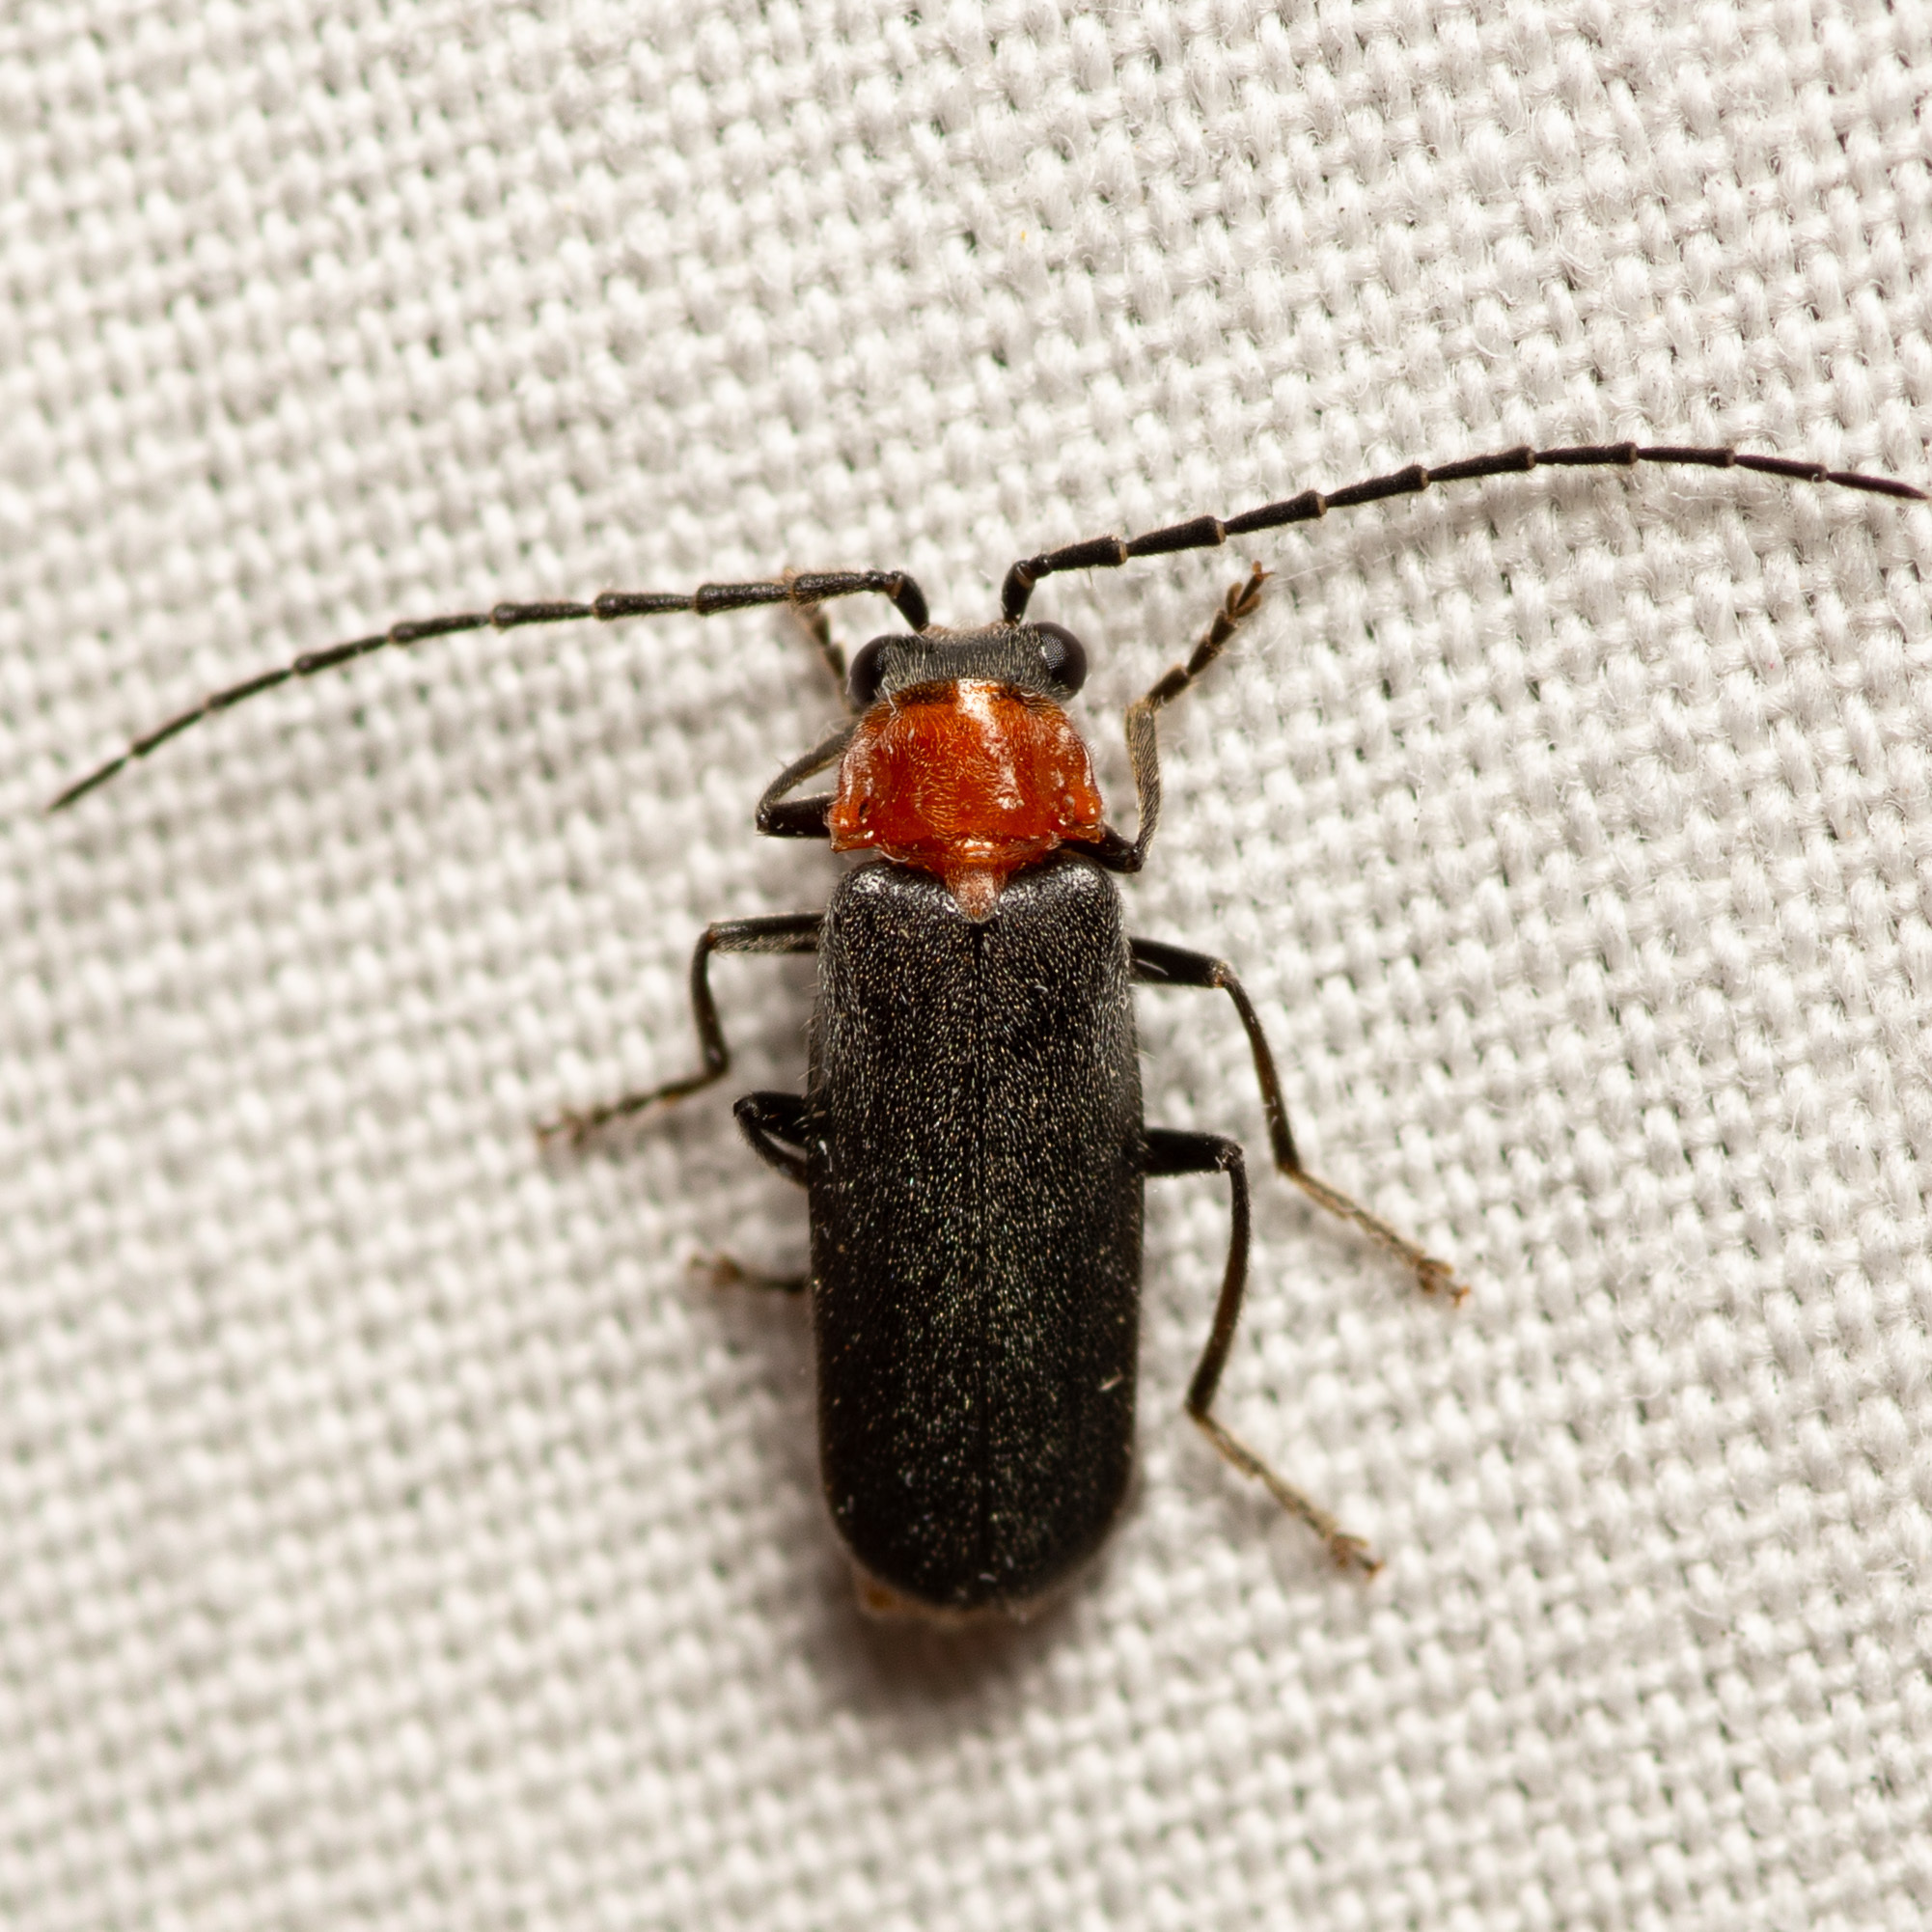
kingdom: Animalia
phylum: Arthropoda
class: Insecta
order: Coleoptera
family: Cantharidae
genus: Ditemnus
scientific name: Ditemnus
